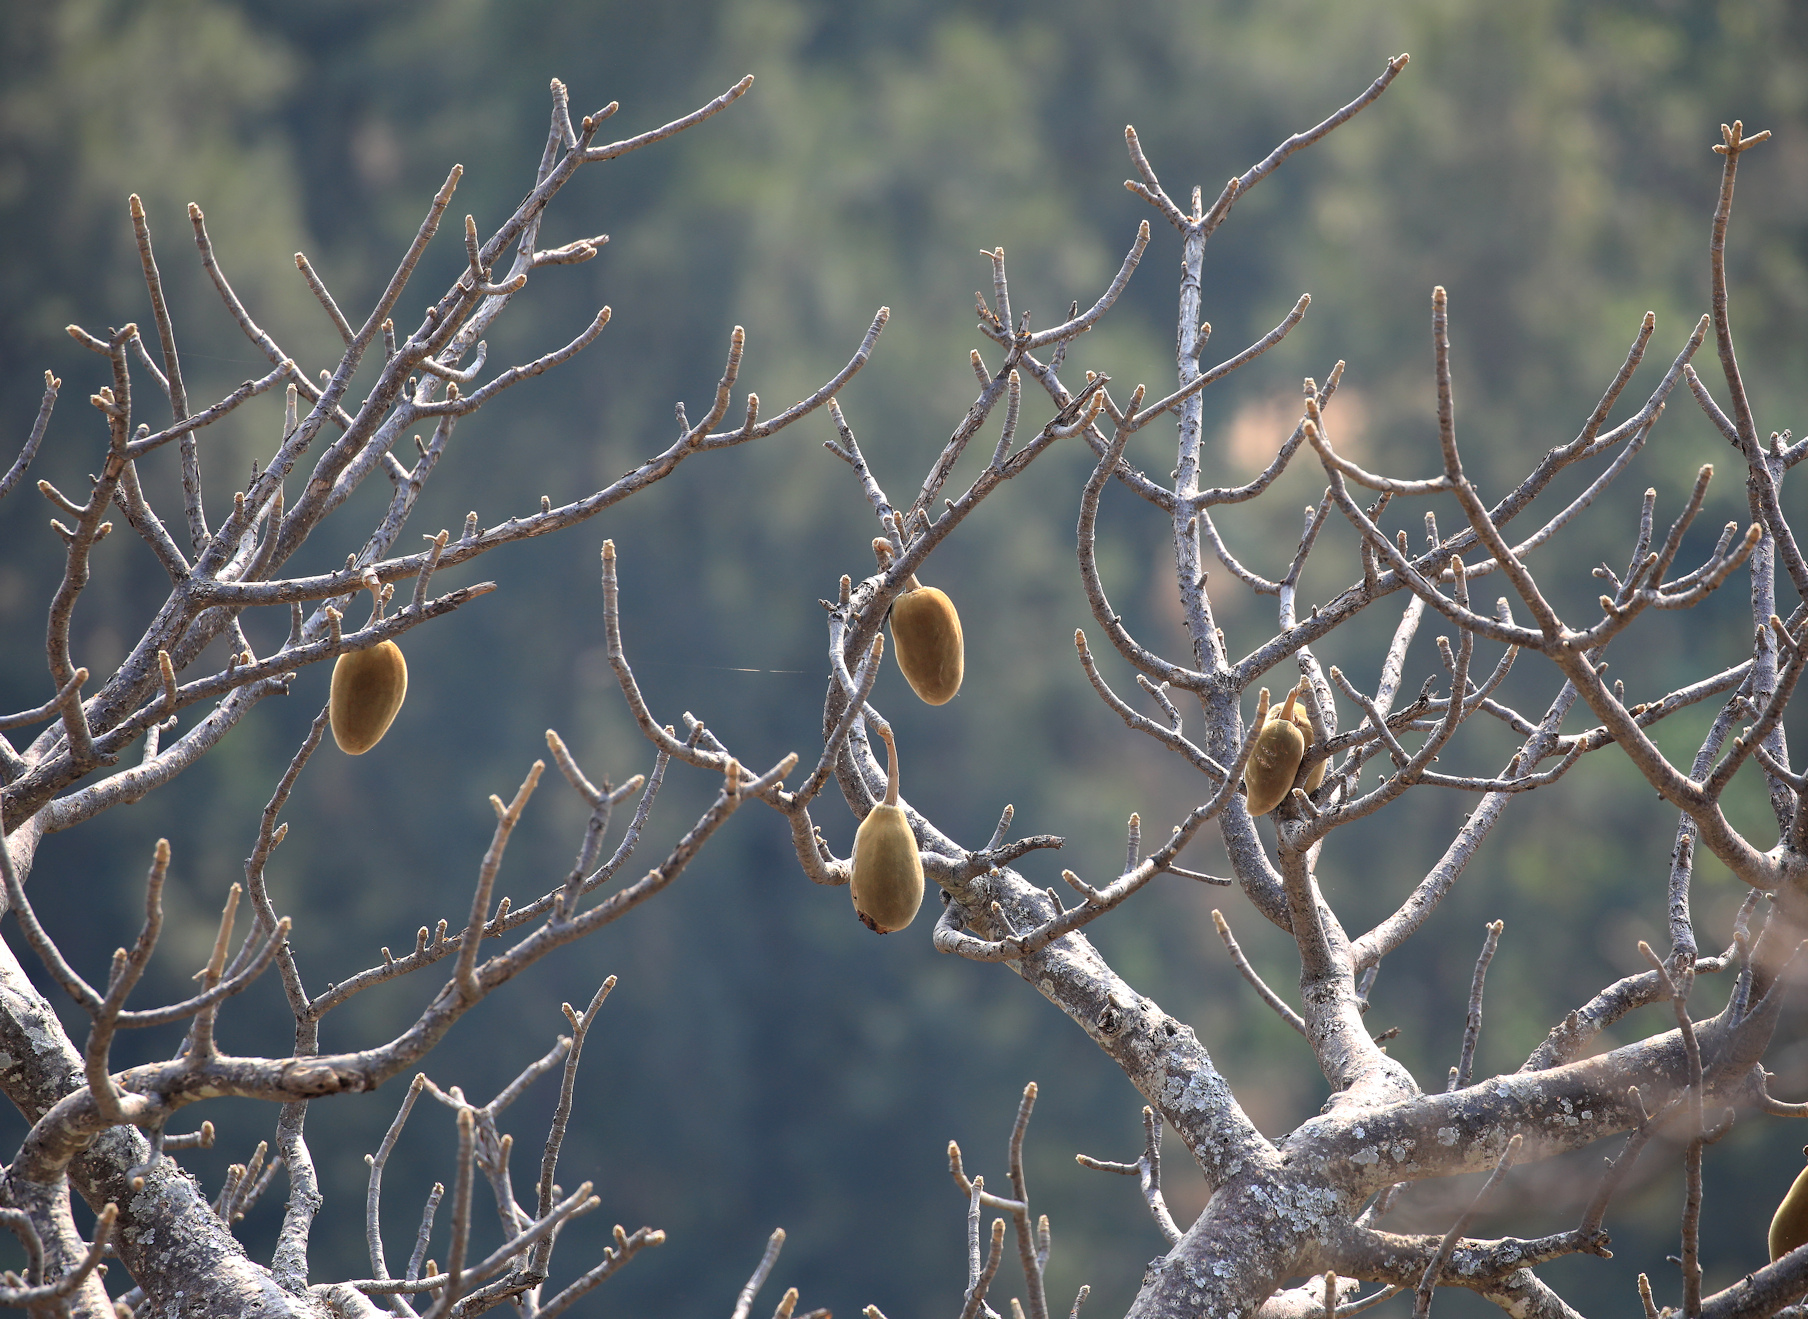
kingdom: Plantae
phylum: Tracheophyta
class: Magnoliopsida
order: Malvales
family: Malvaceae
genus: Adansonia
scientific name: Adansonia digitata
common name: Dead-rat-tree
